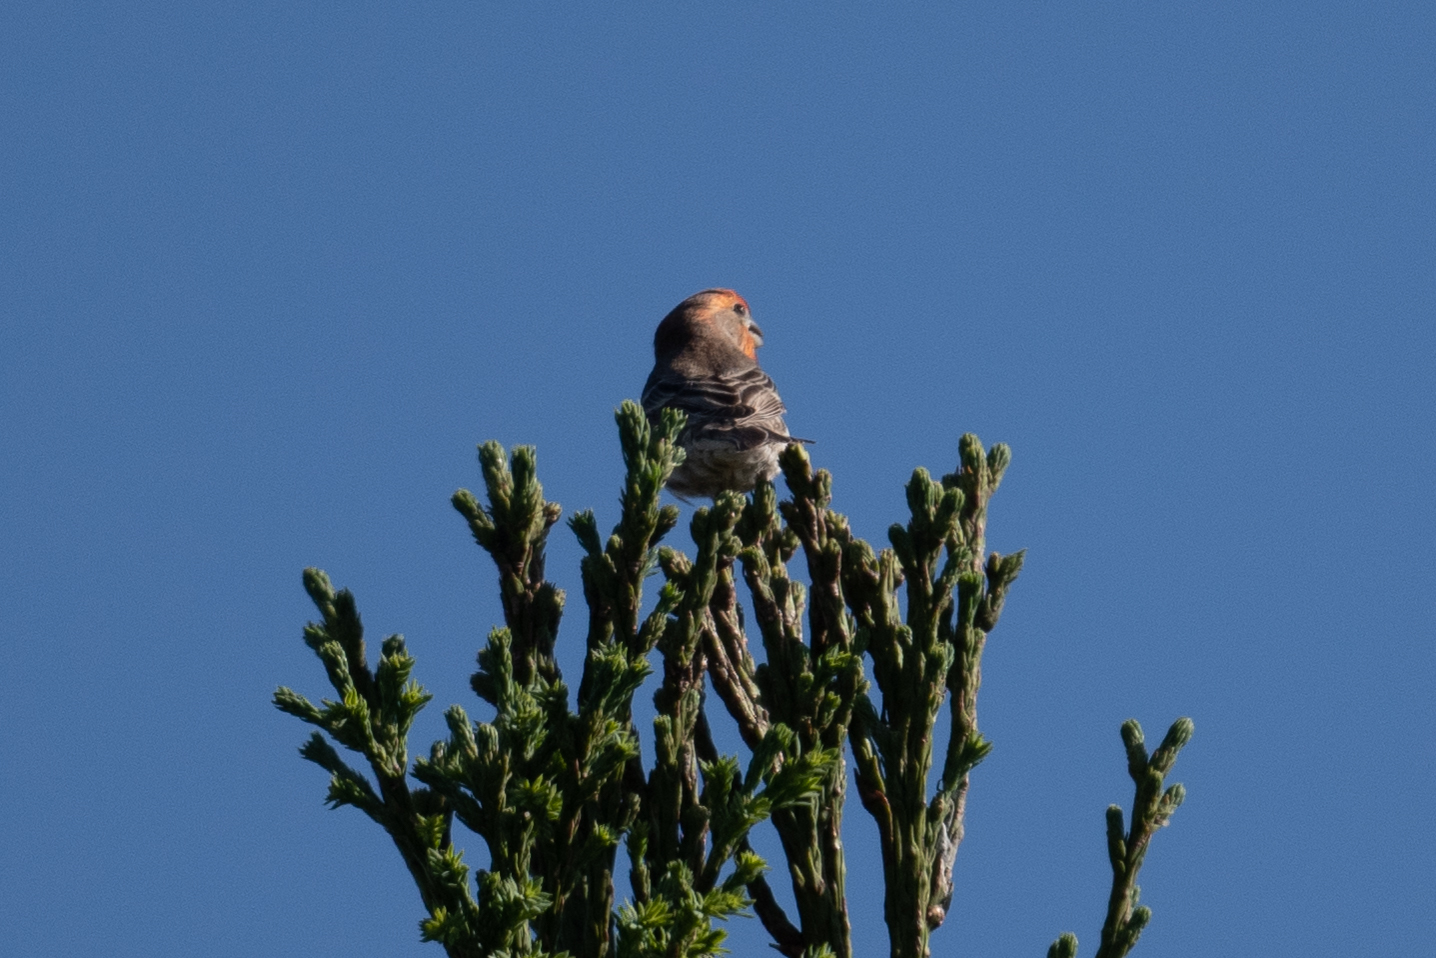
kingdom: Animalia
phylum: Chordata
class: Aves
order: Passeriformes
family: Fringillidae
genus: Haemorhous
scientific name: Haemorhous mexicanus
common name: House finch
